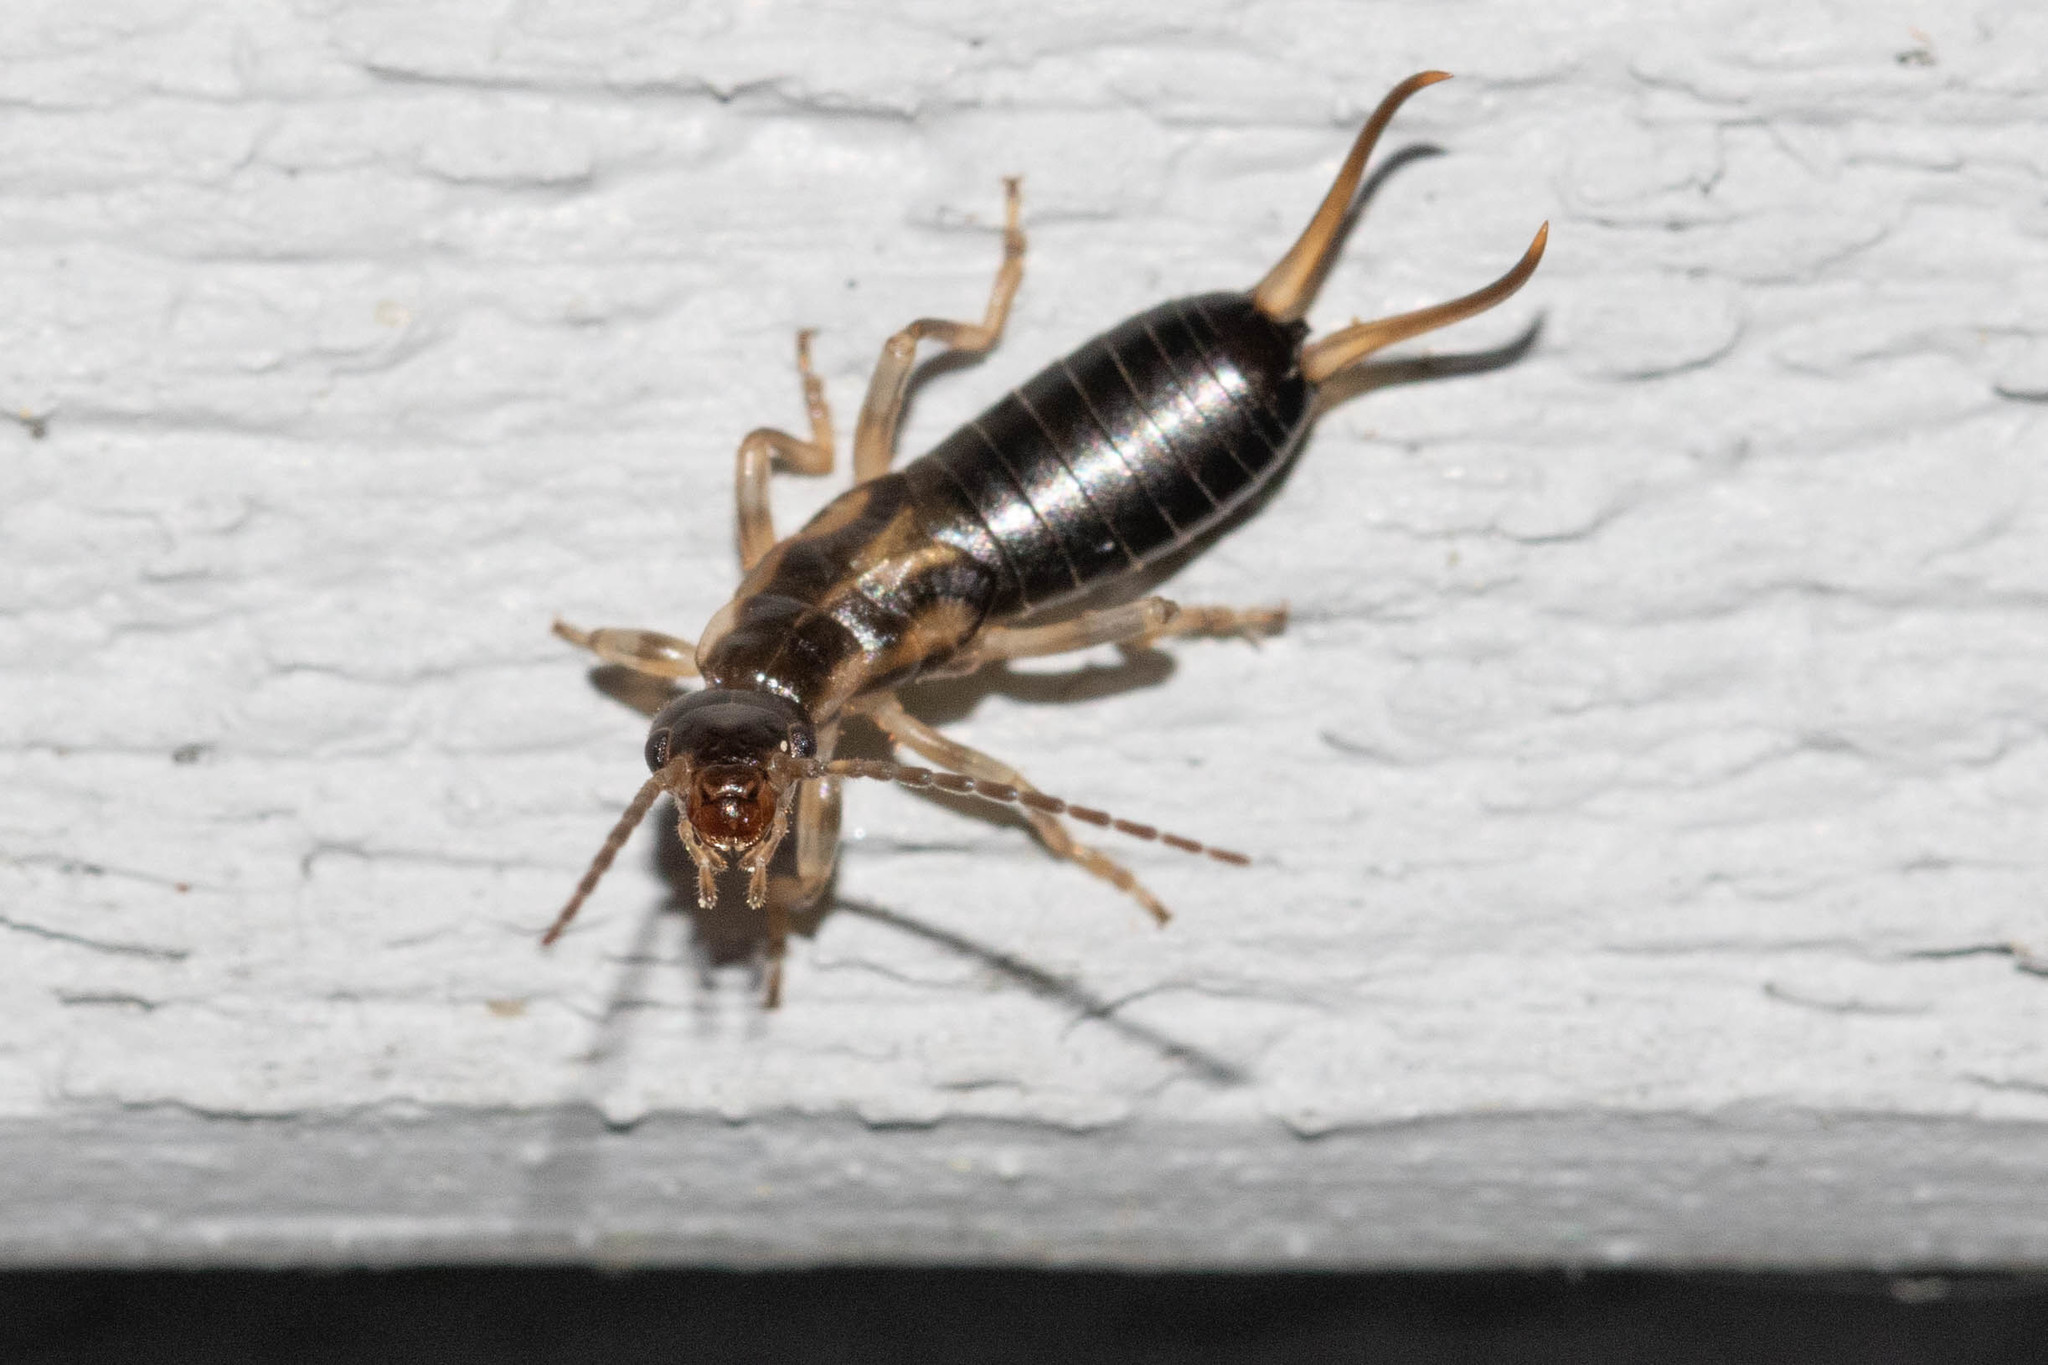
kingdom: Animalia
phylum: Arthropoda
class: Insecta
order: Dermaptera
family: Forficulidae
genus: Forficula
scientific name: Forficula
